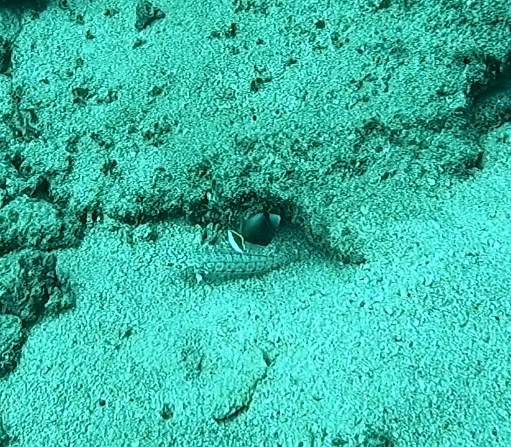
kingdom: Animalia
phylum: Chordata
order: Tetraodontiformes
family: Balistidae
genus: Sufflamen
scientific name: Sufflamen chrysopterum
